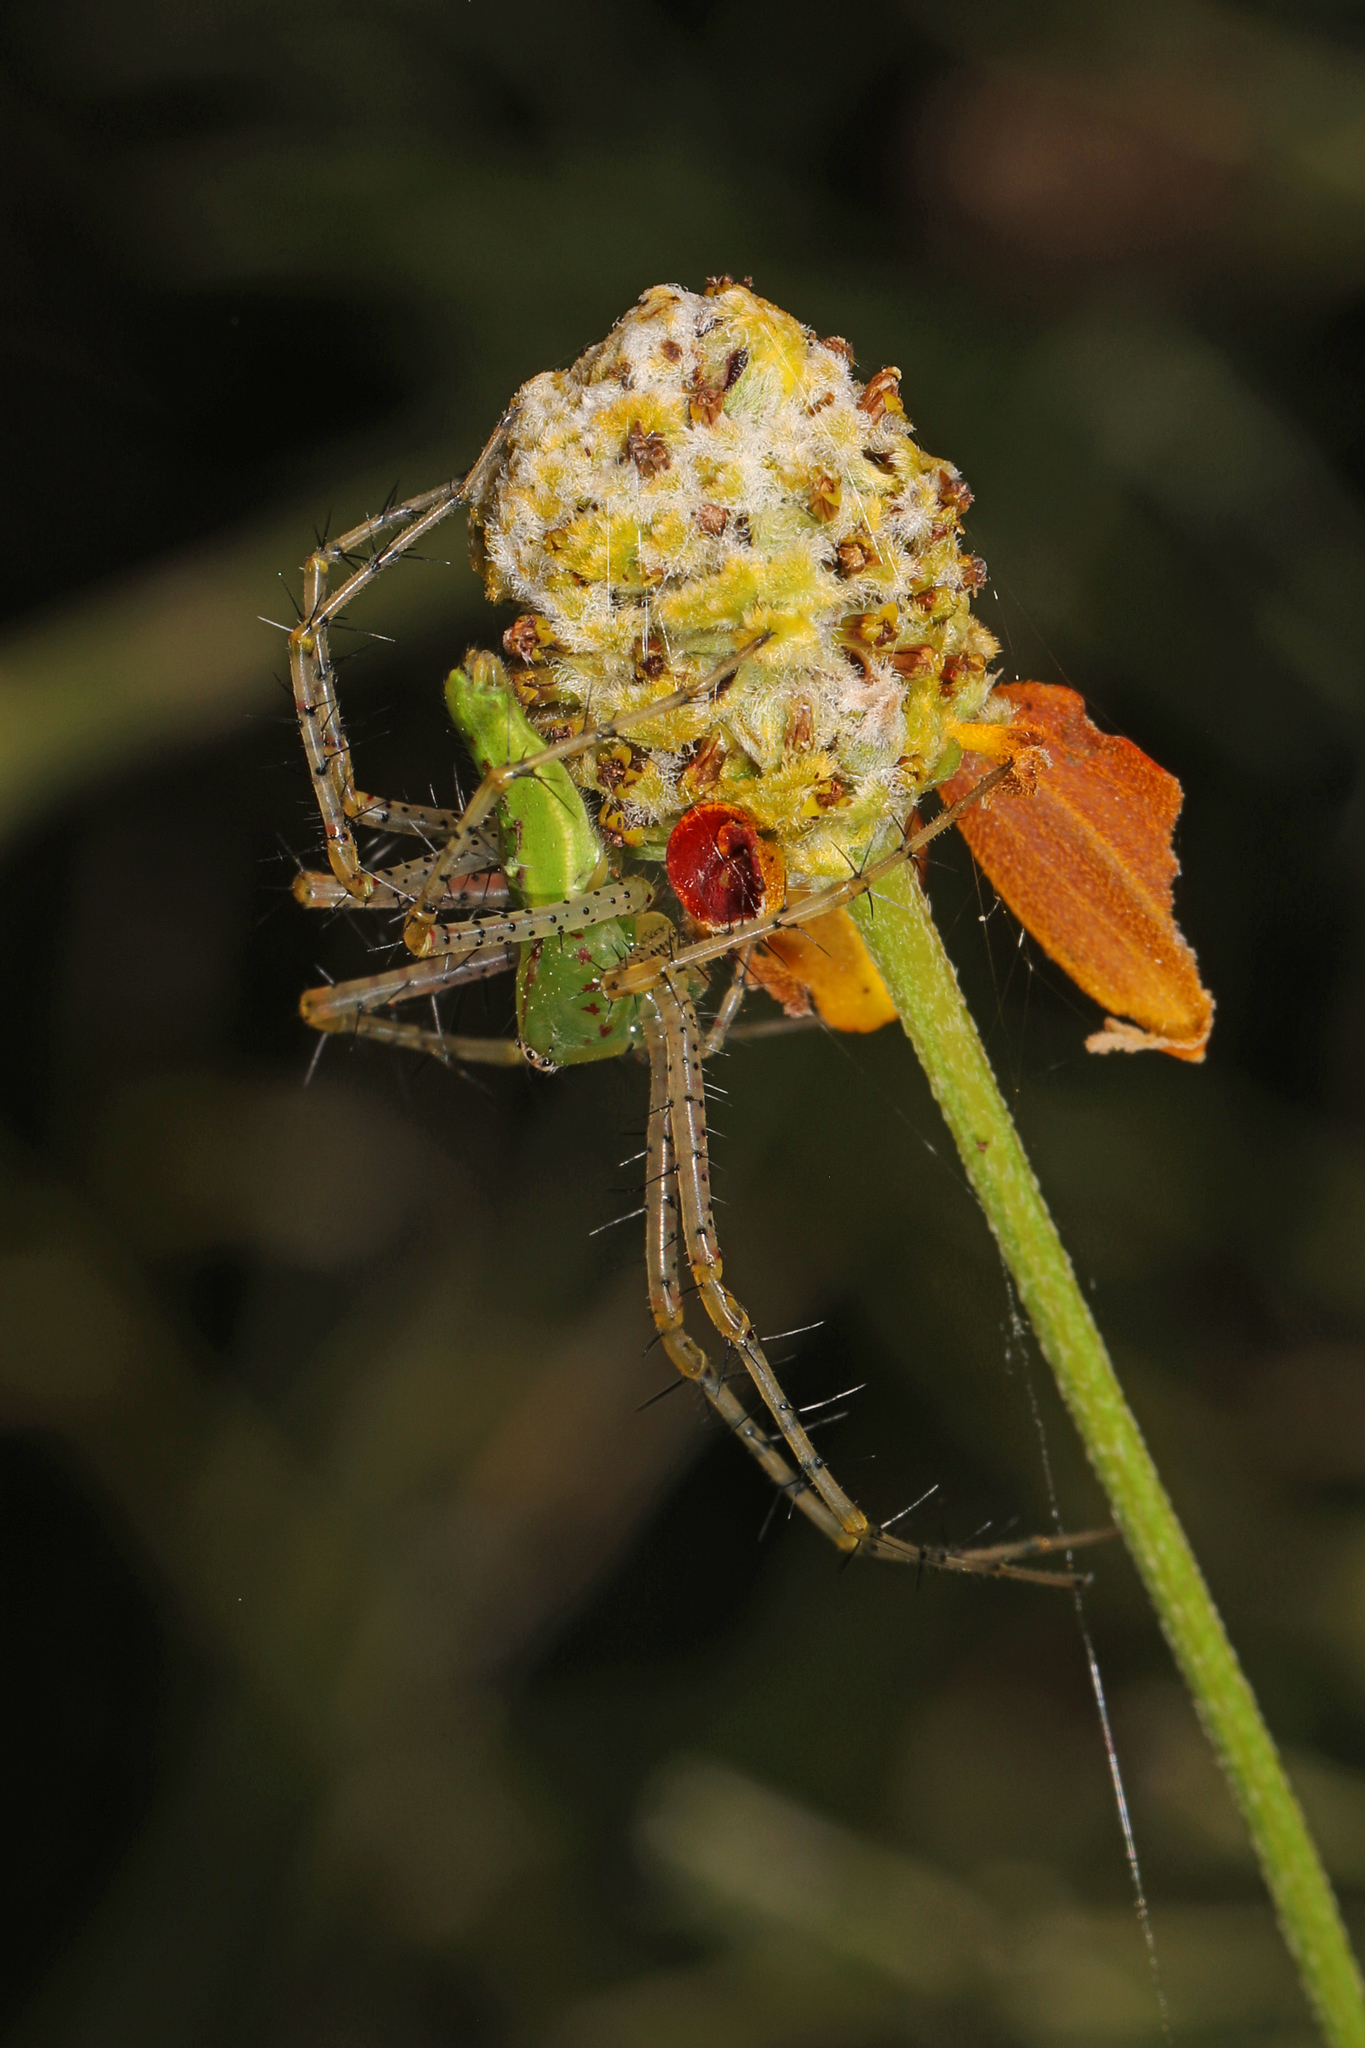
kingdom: Animalia
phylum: Arthropoda
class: Arachnida
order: Araneae
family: Oxyopidae
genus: Peucetia
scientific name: Peucetia viridans
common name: Lynx spiders
